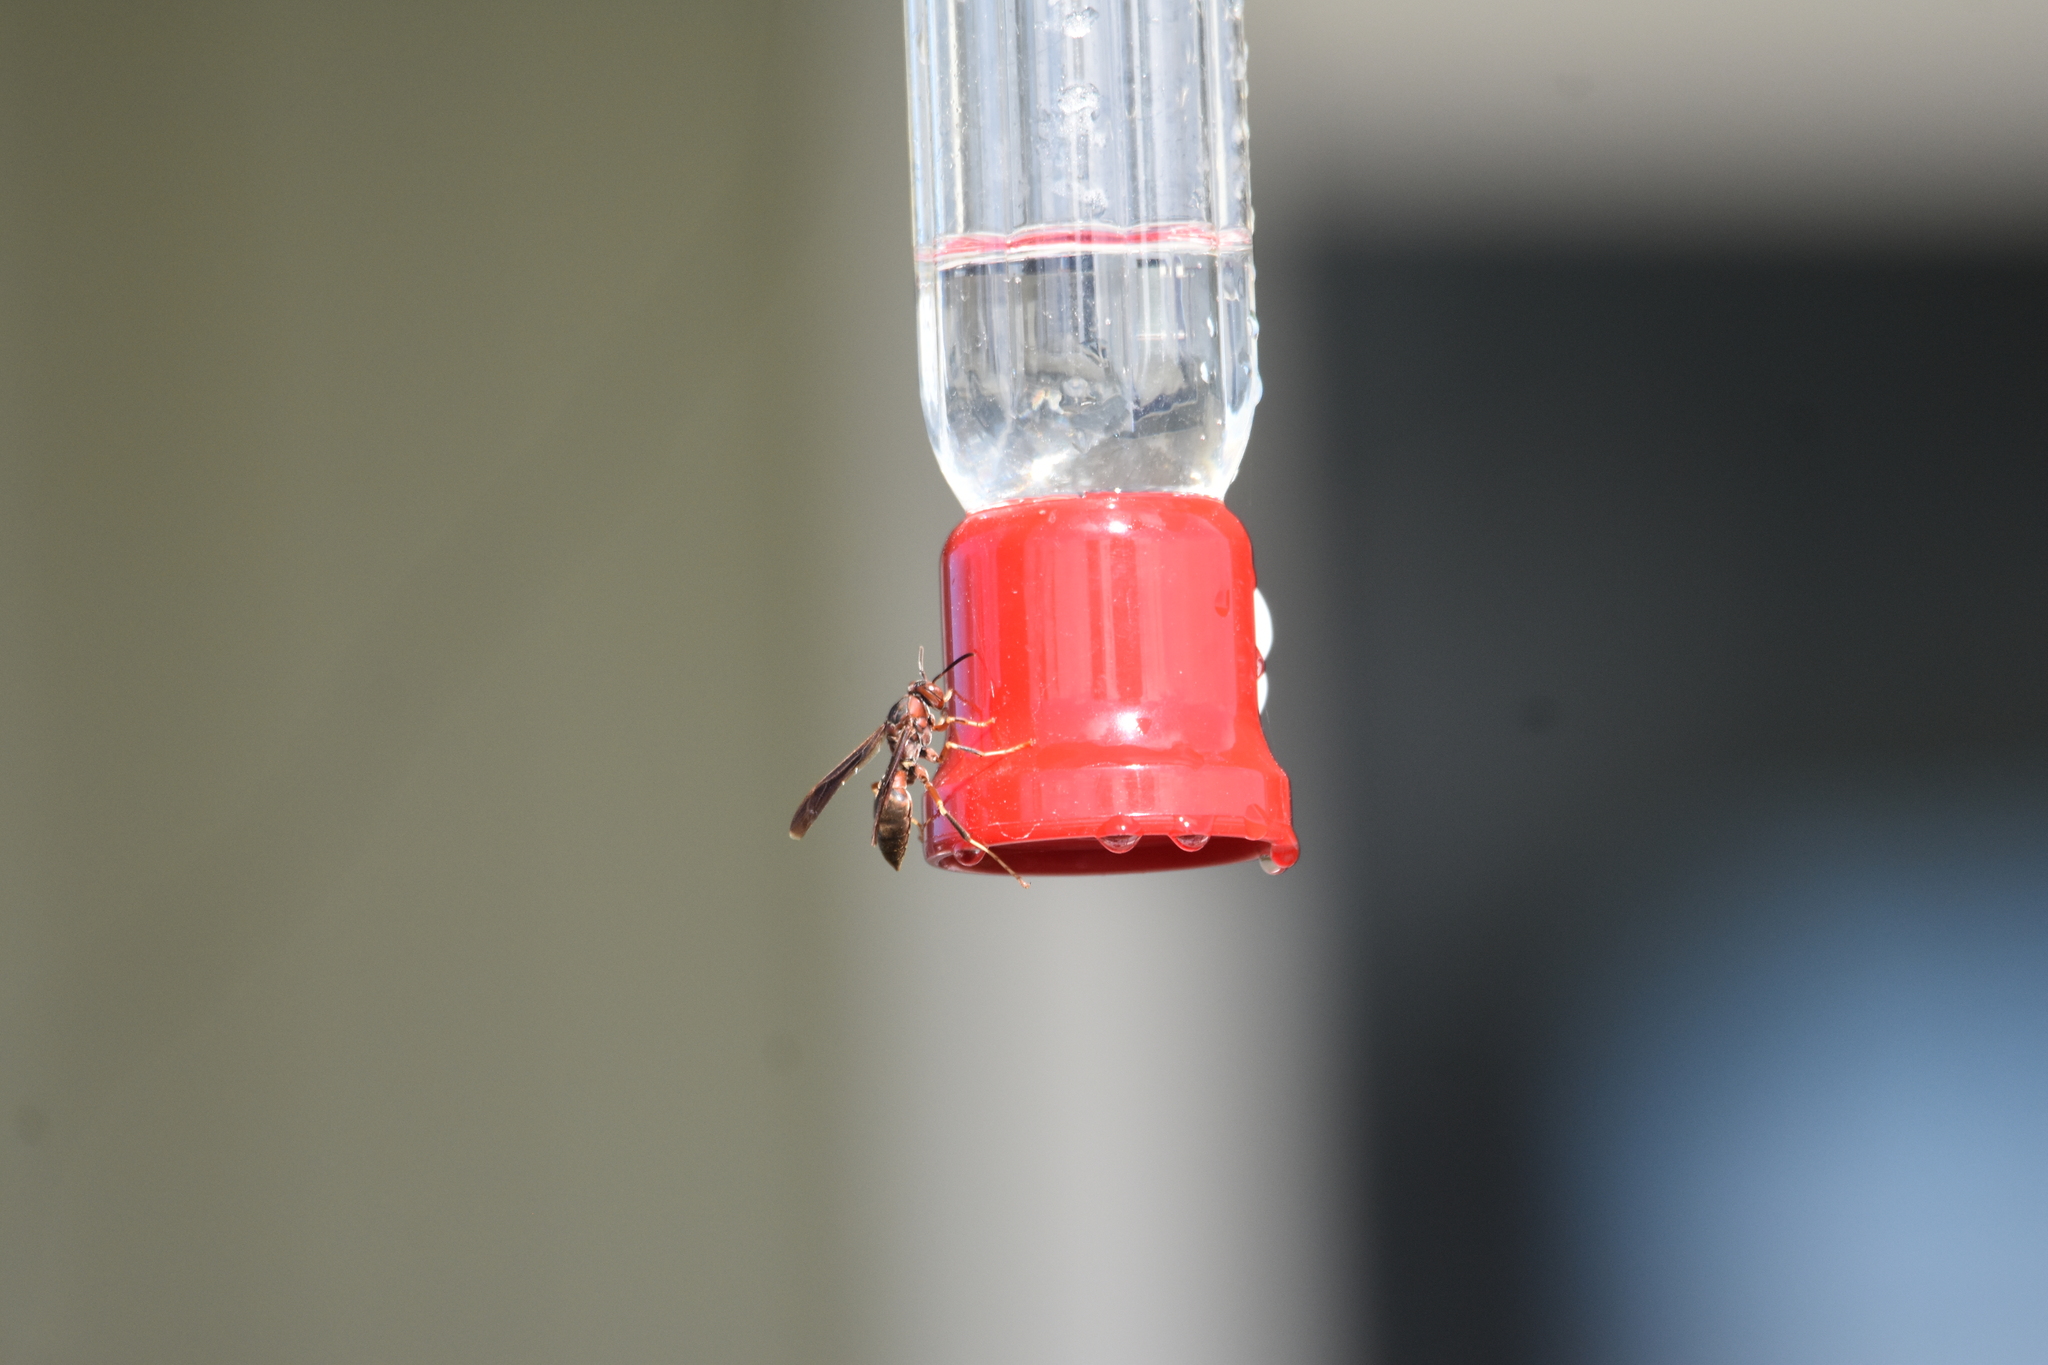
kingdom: Animalia
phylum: Arthropoda
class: Insecta
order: Hymenoptera
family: Eumenidae
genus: Polistes
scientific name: Polistes metricus
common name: Metric paper wasp
